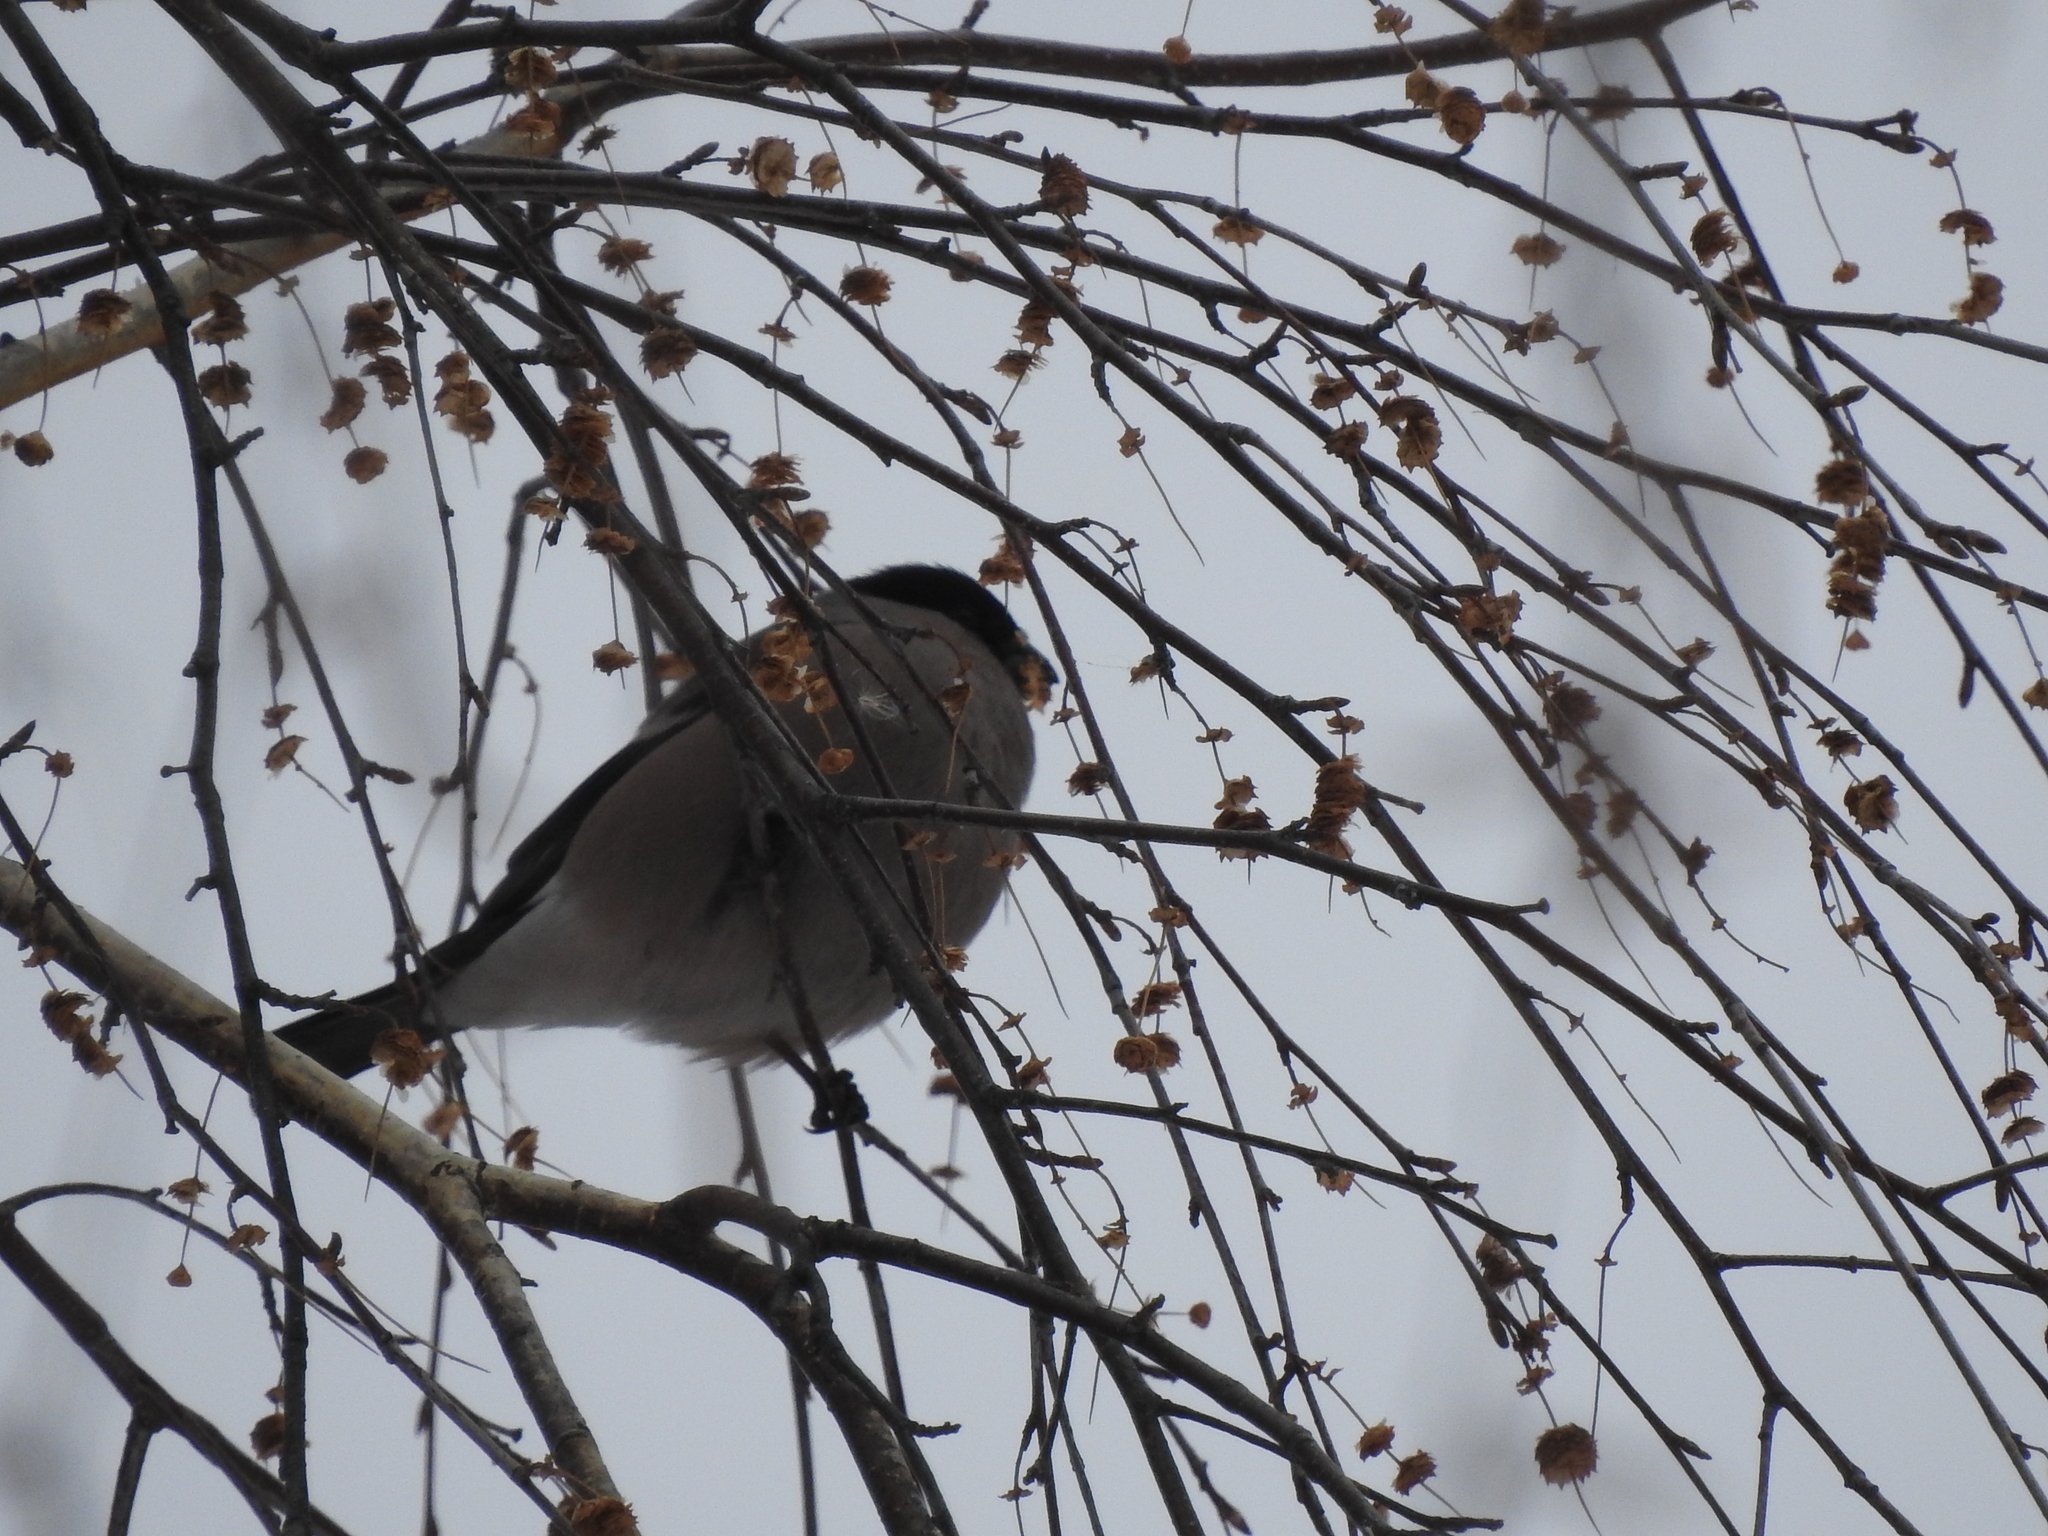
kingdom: Animalia
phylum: Chordata
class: Aves
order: Passeriformes
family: Fringillidae
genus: Pyrrhula
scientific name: Pyrrhula pyrrhula
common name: Eurasian bullfinch
